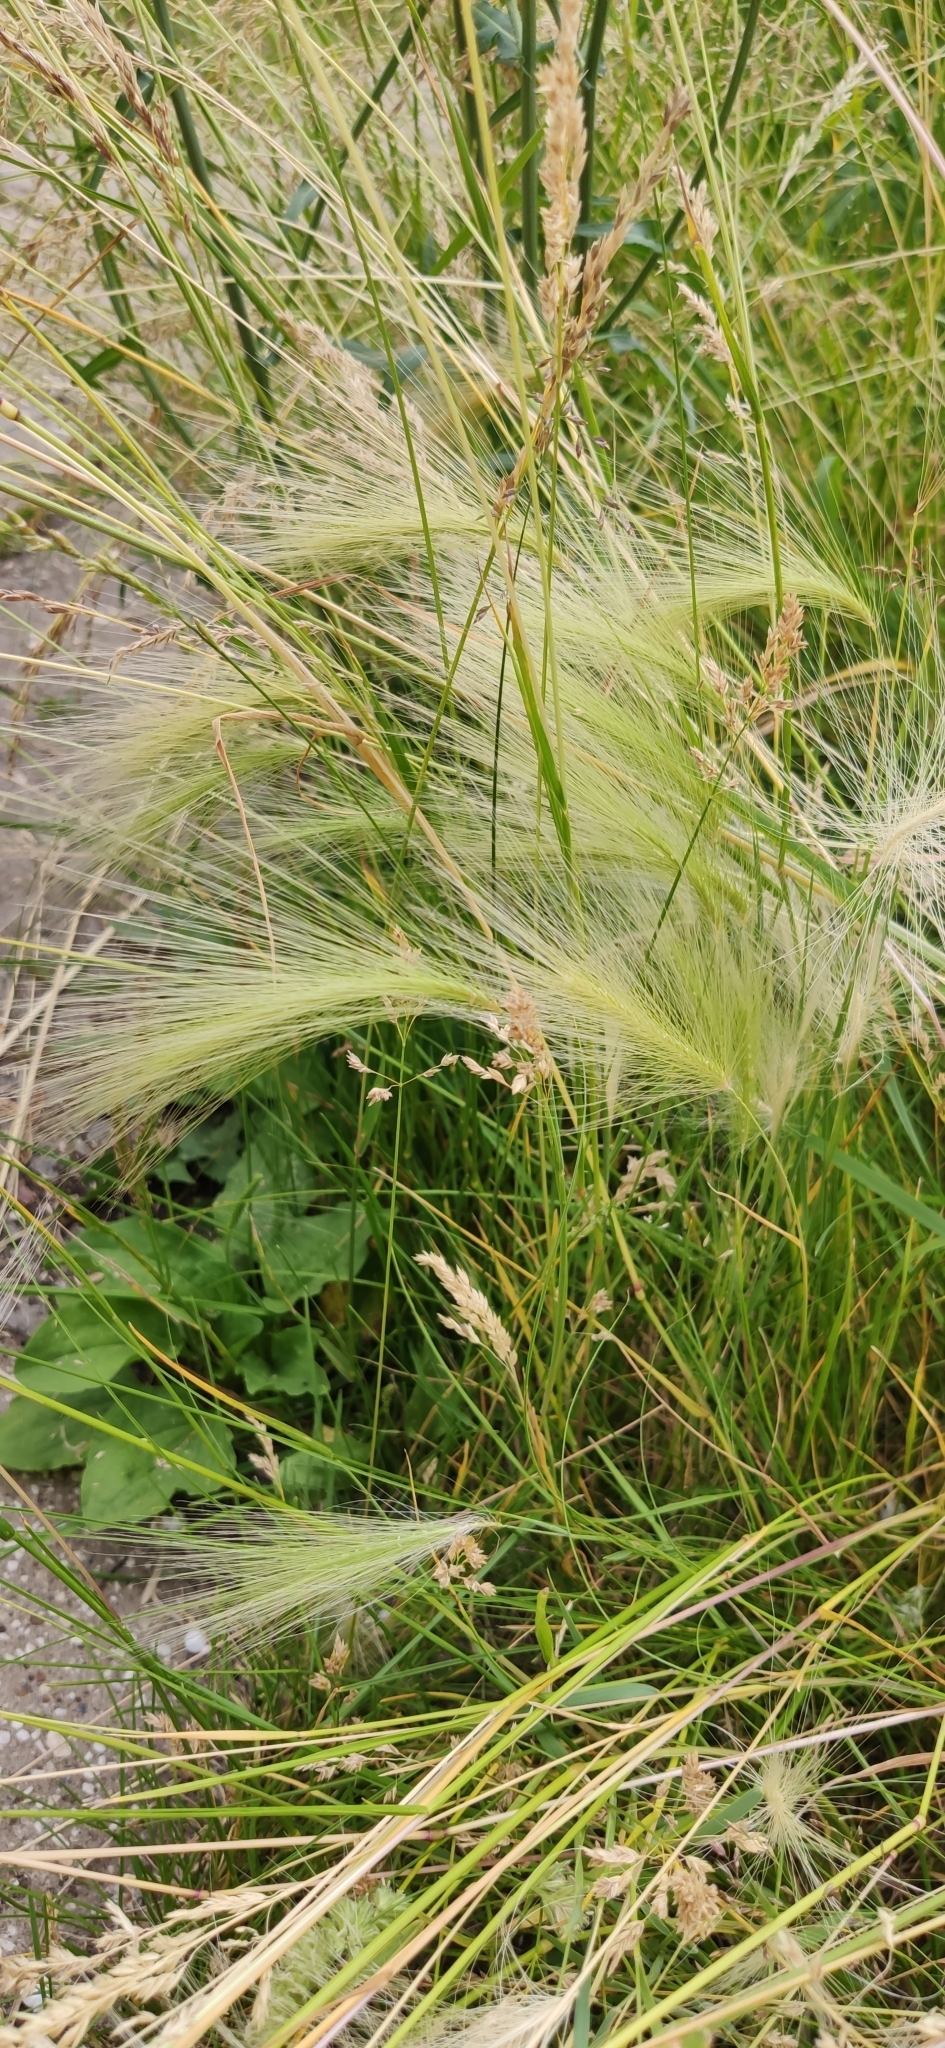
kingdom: Plantae
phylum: Tracheophyta
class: Liliopsida
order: Poales
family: Poaceae
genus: Hordeum
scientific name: Hordeum jubatum
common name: Foxtail barley
